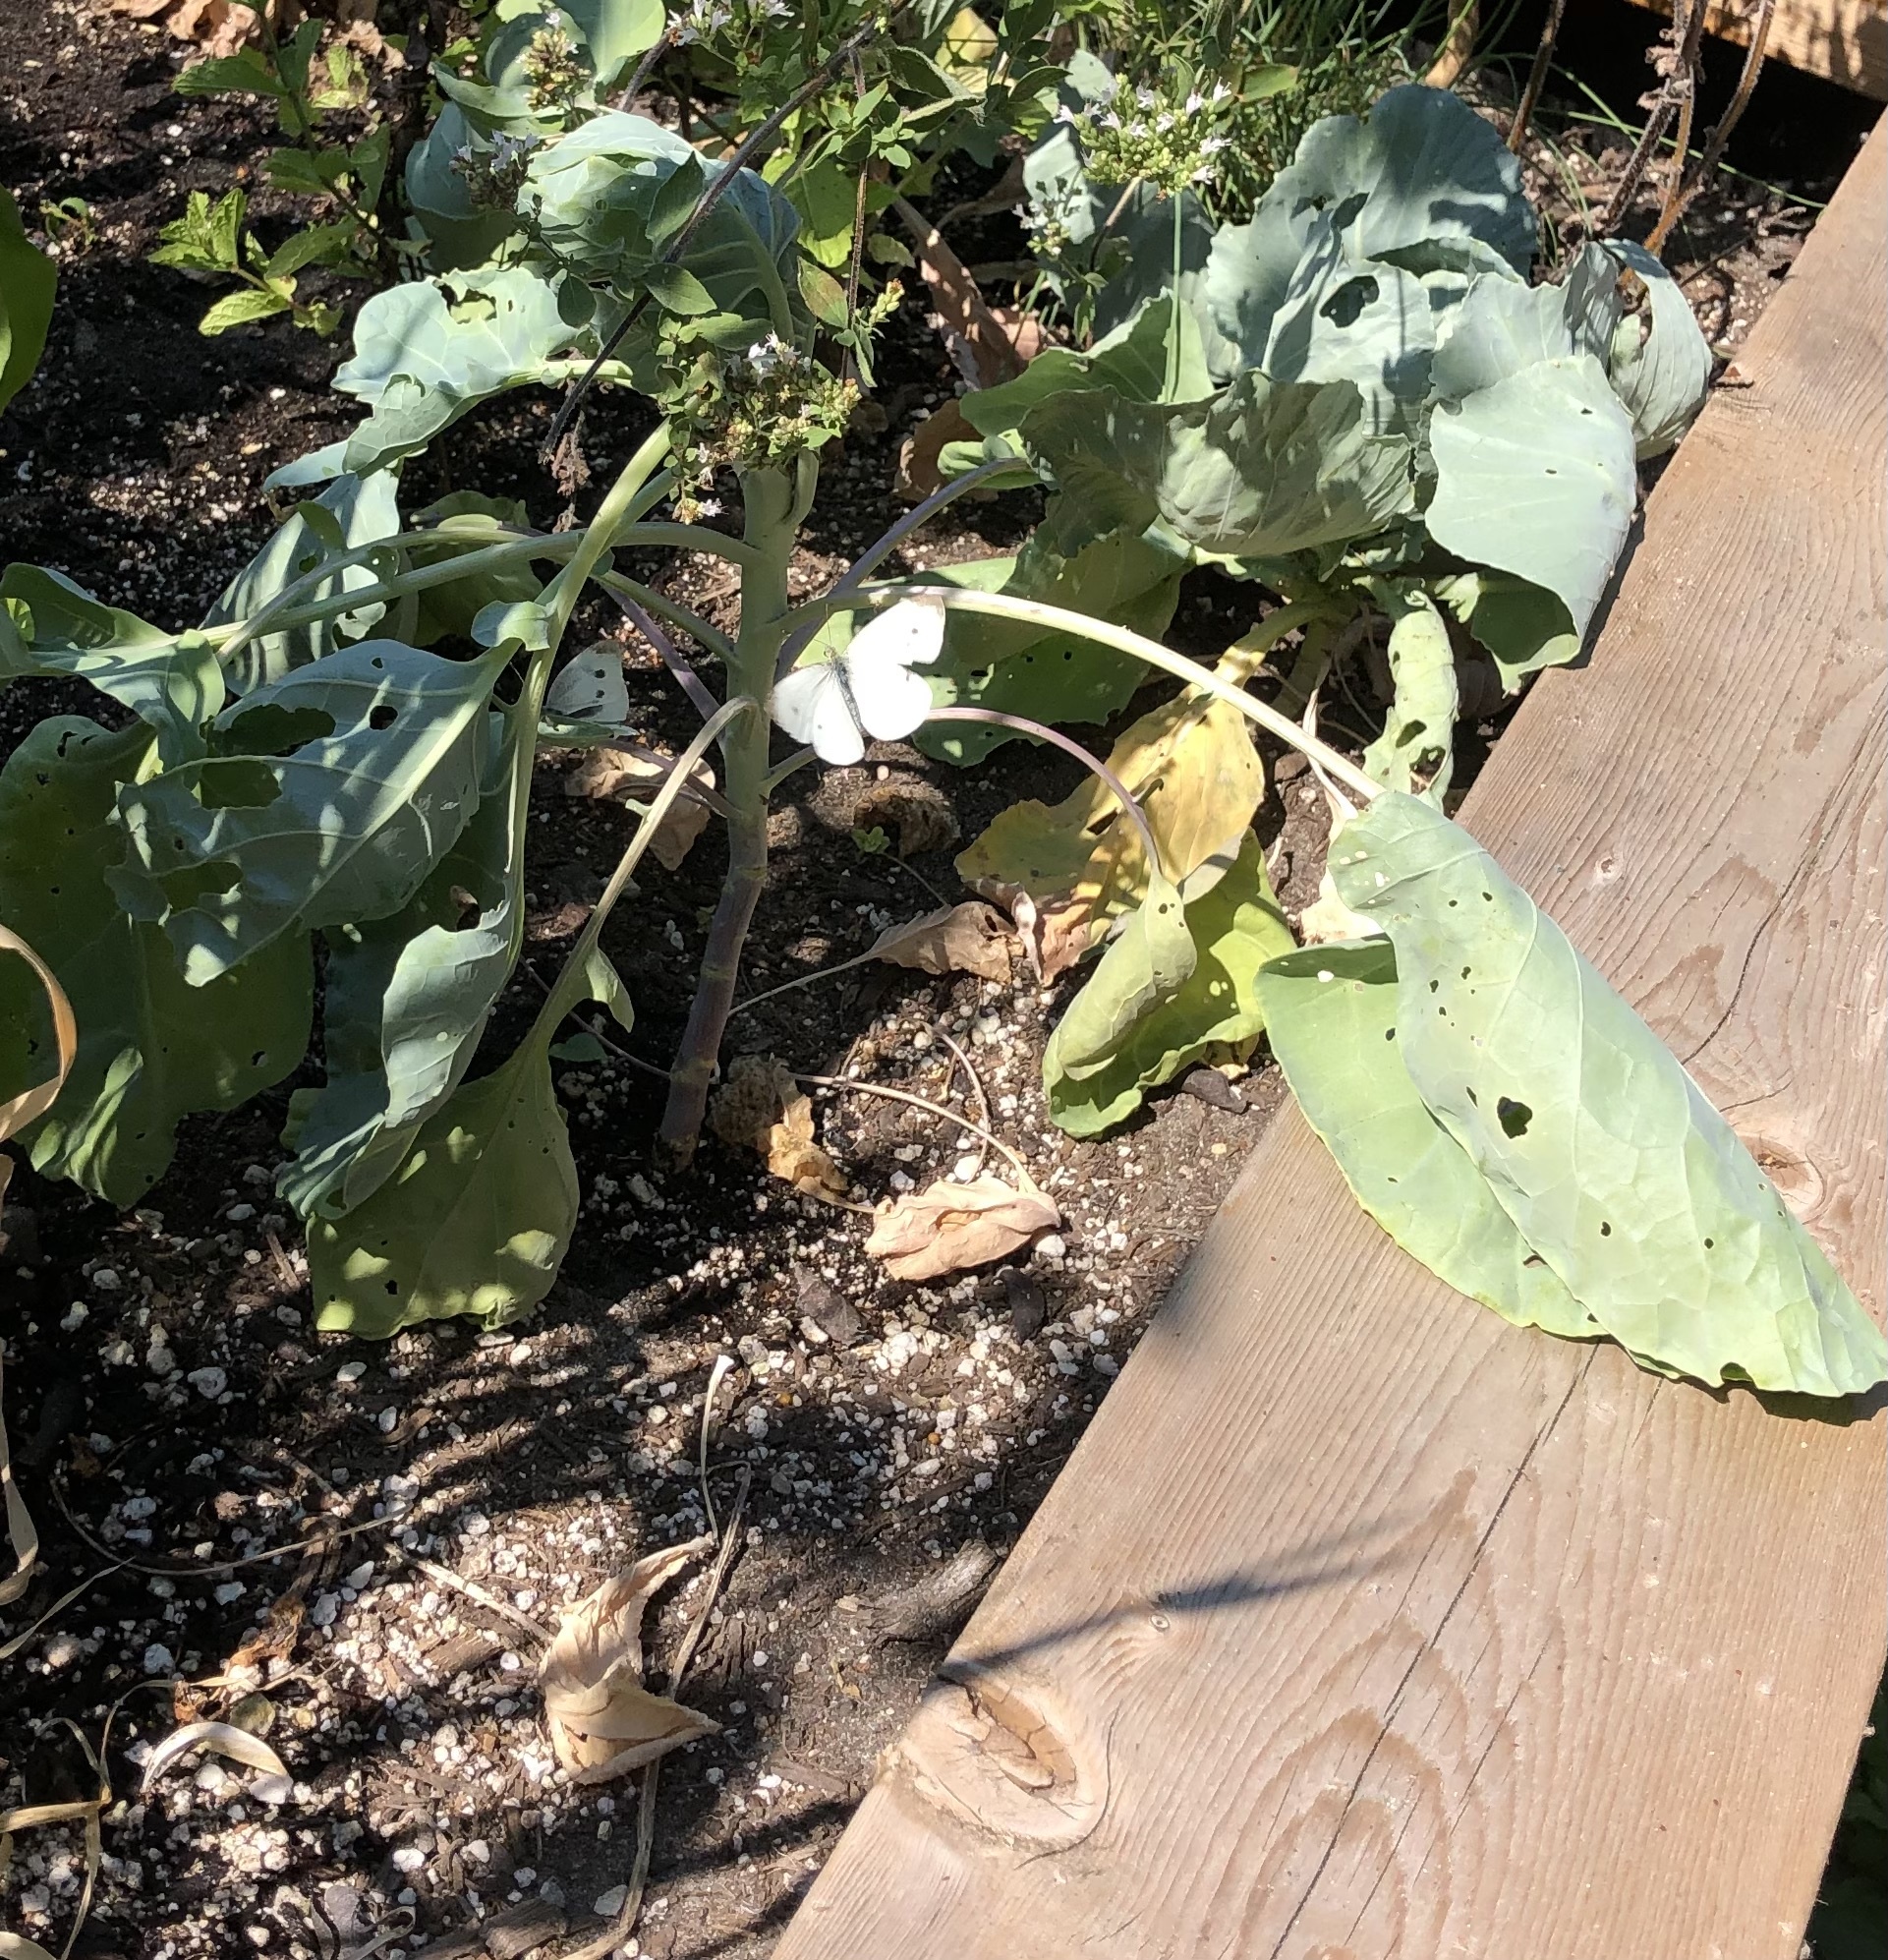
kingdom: Animalia
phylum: Arthropoda
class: Insecta
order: Lepidoptera
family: Pieridae
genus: Pieris
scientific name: Pieris rapae
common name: Small white
